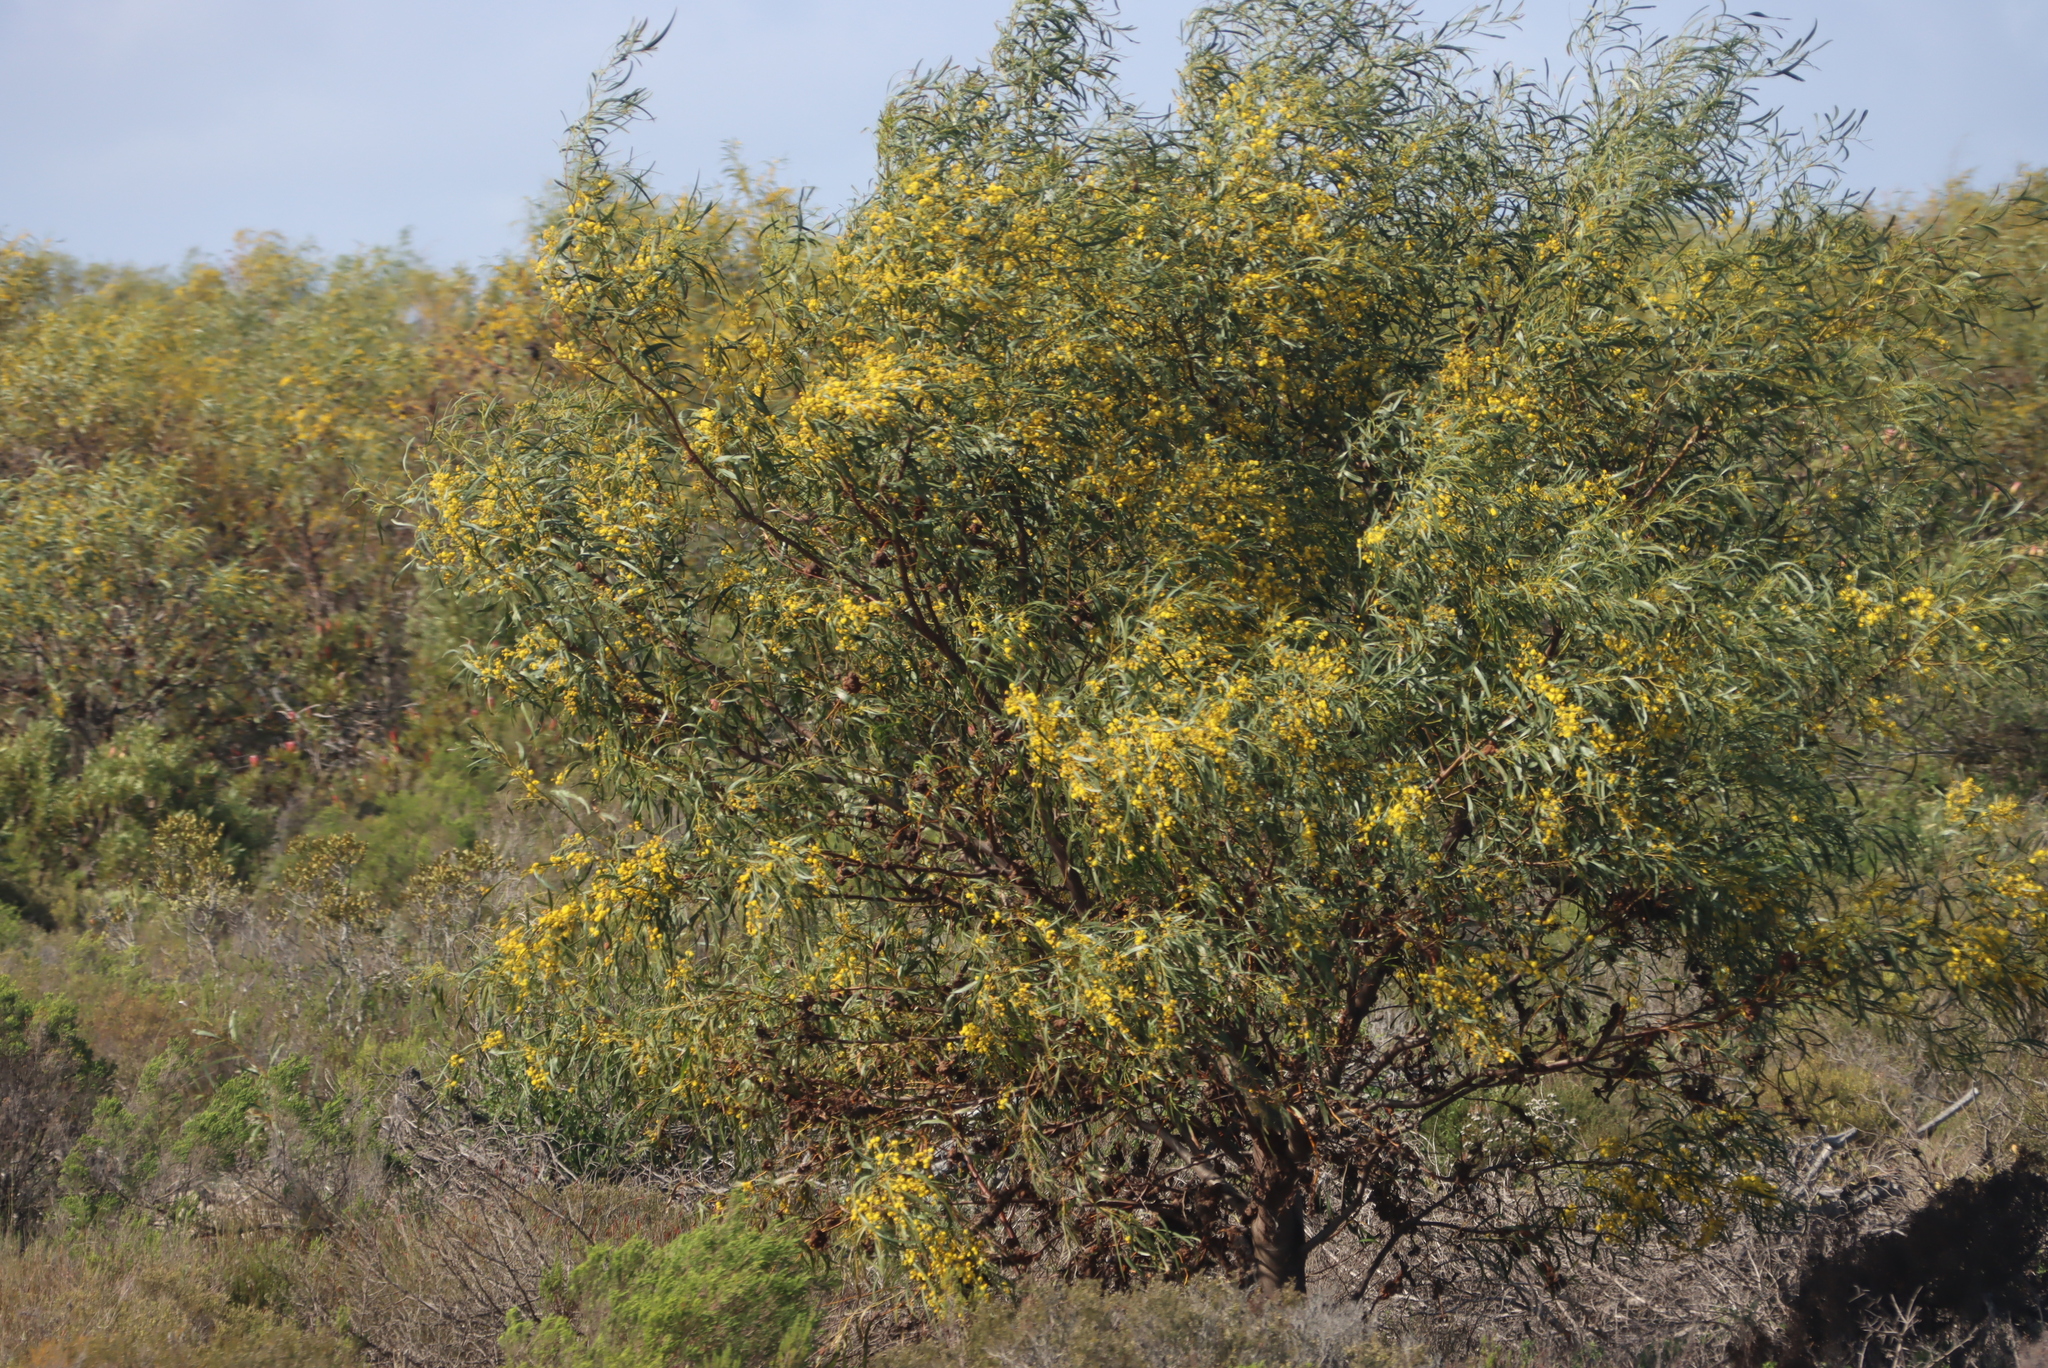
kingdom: Plantae
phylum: Tracheophyta
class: Magnoliopsida
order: Fabales
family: Fabaceae
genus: Acacia
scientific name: Acacia saligna
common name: Orange wattle
